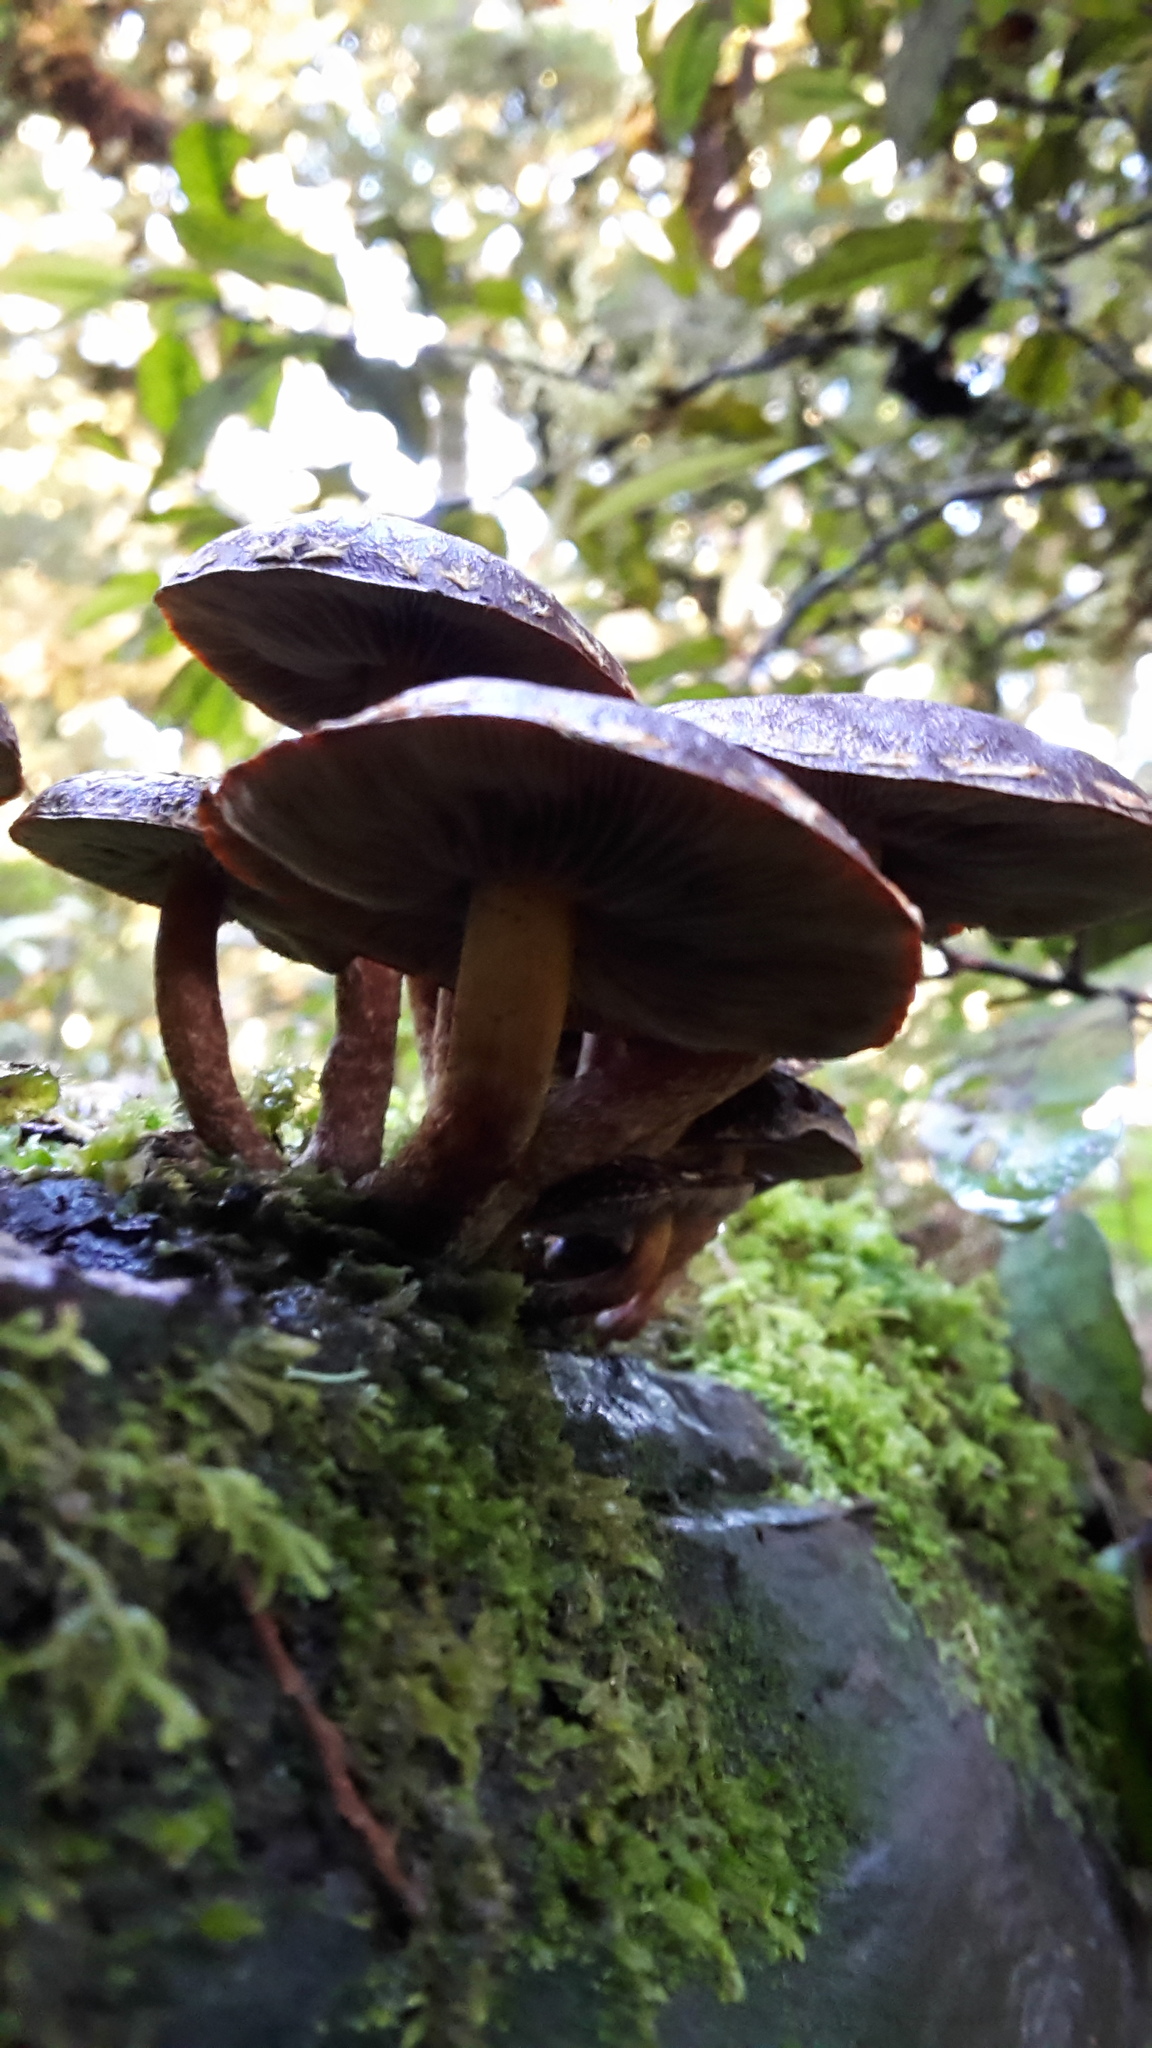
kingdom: Fungi
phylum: Basidiomycota
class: Agaricomycetes
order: Agaricales
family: Strophariaceae
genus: Hypholoma
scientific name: Hypholoma brunneum
